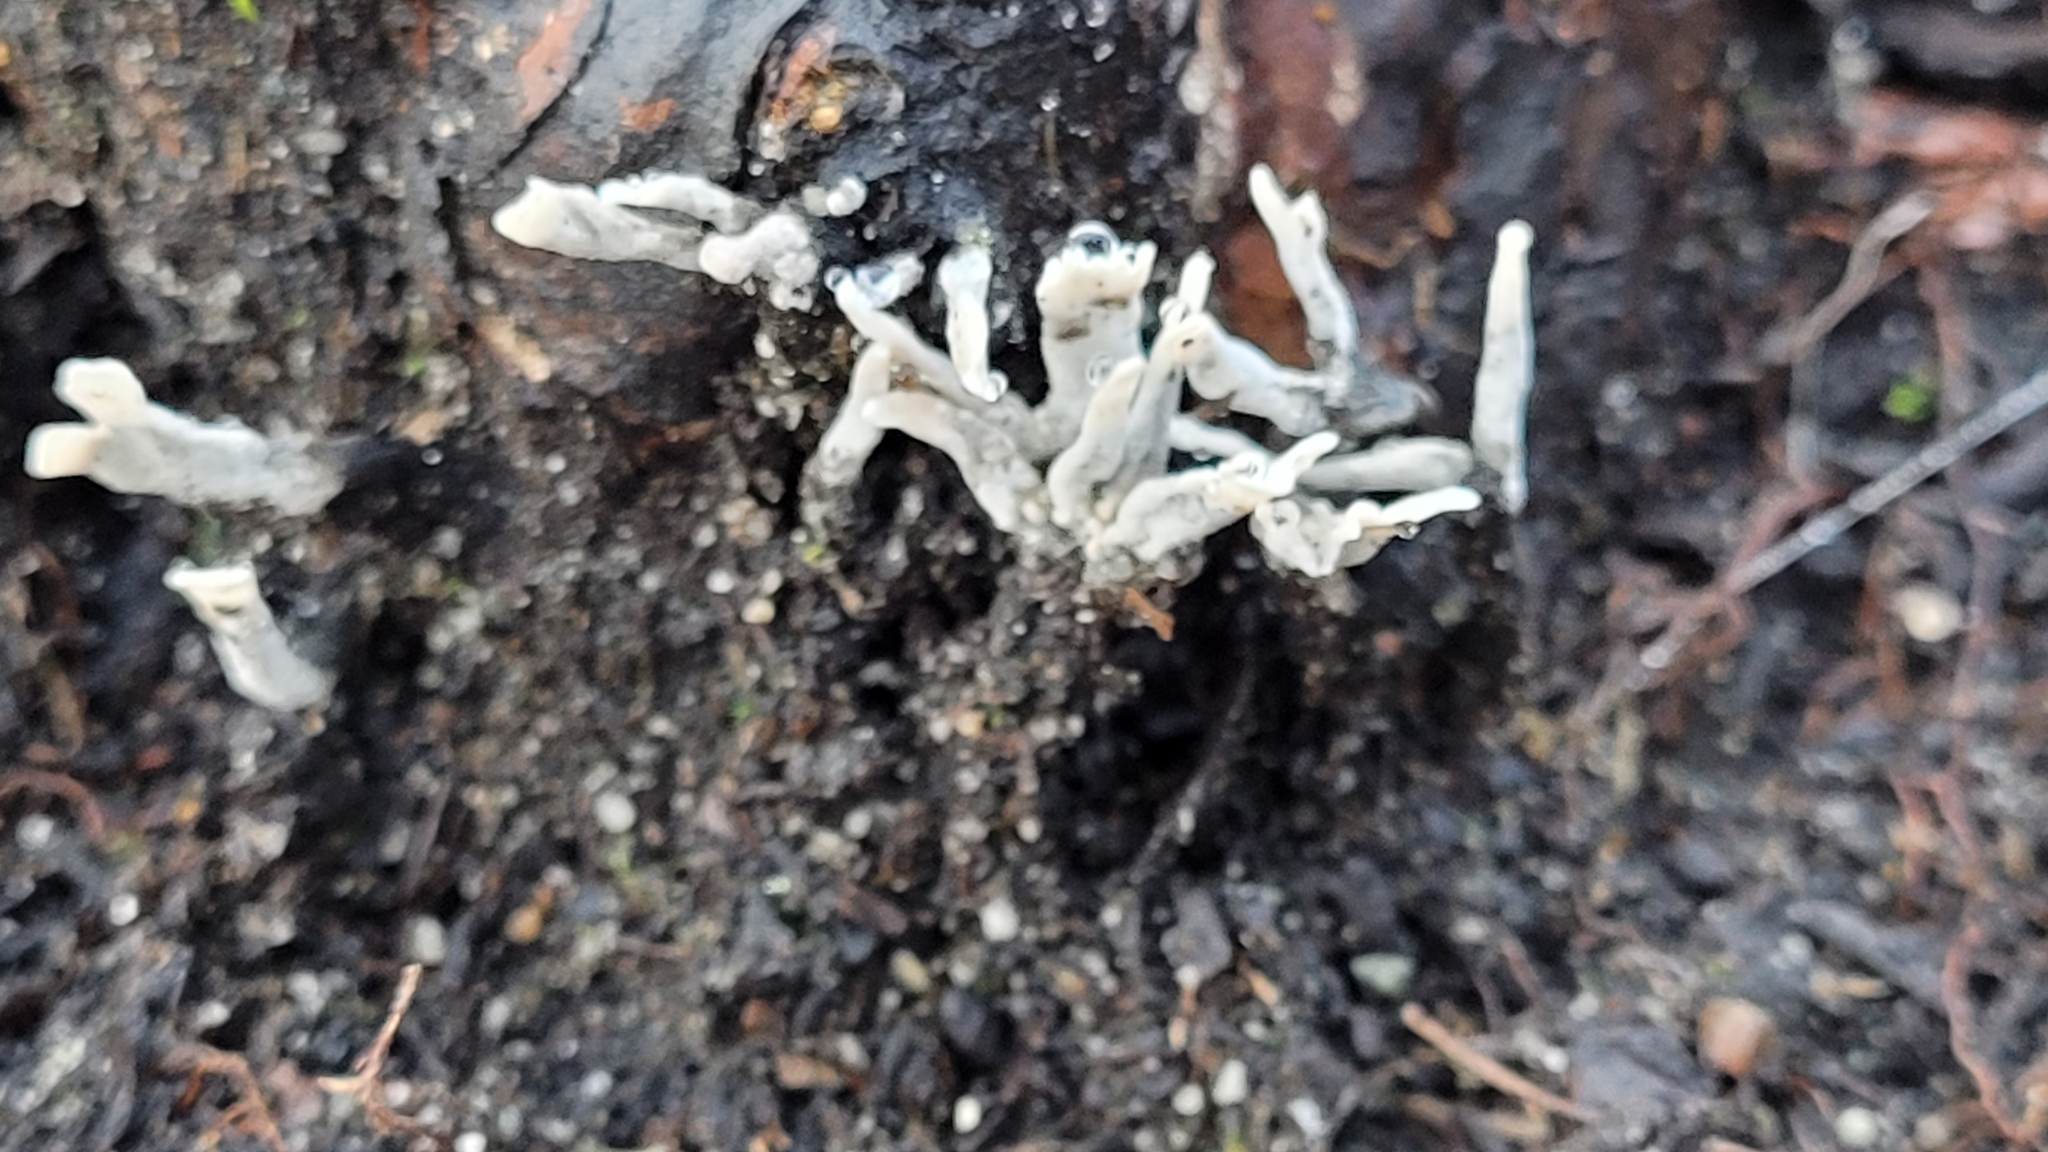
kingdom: Fungi
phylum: Ascomycota
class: Sordariomycetes
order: Xylariales
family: Xylariaceae
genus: Xylaria
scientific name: Xylaria hypoxylon
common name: Candle-snuff fungus
